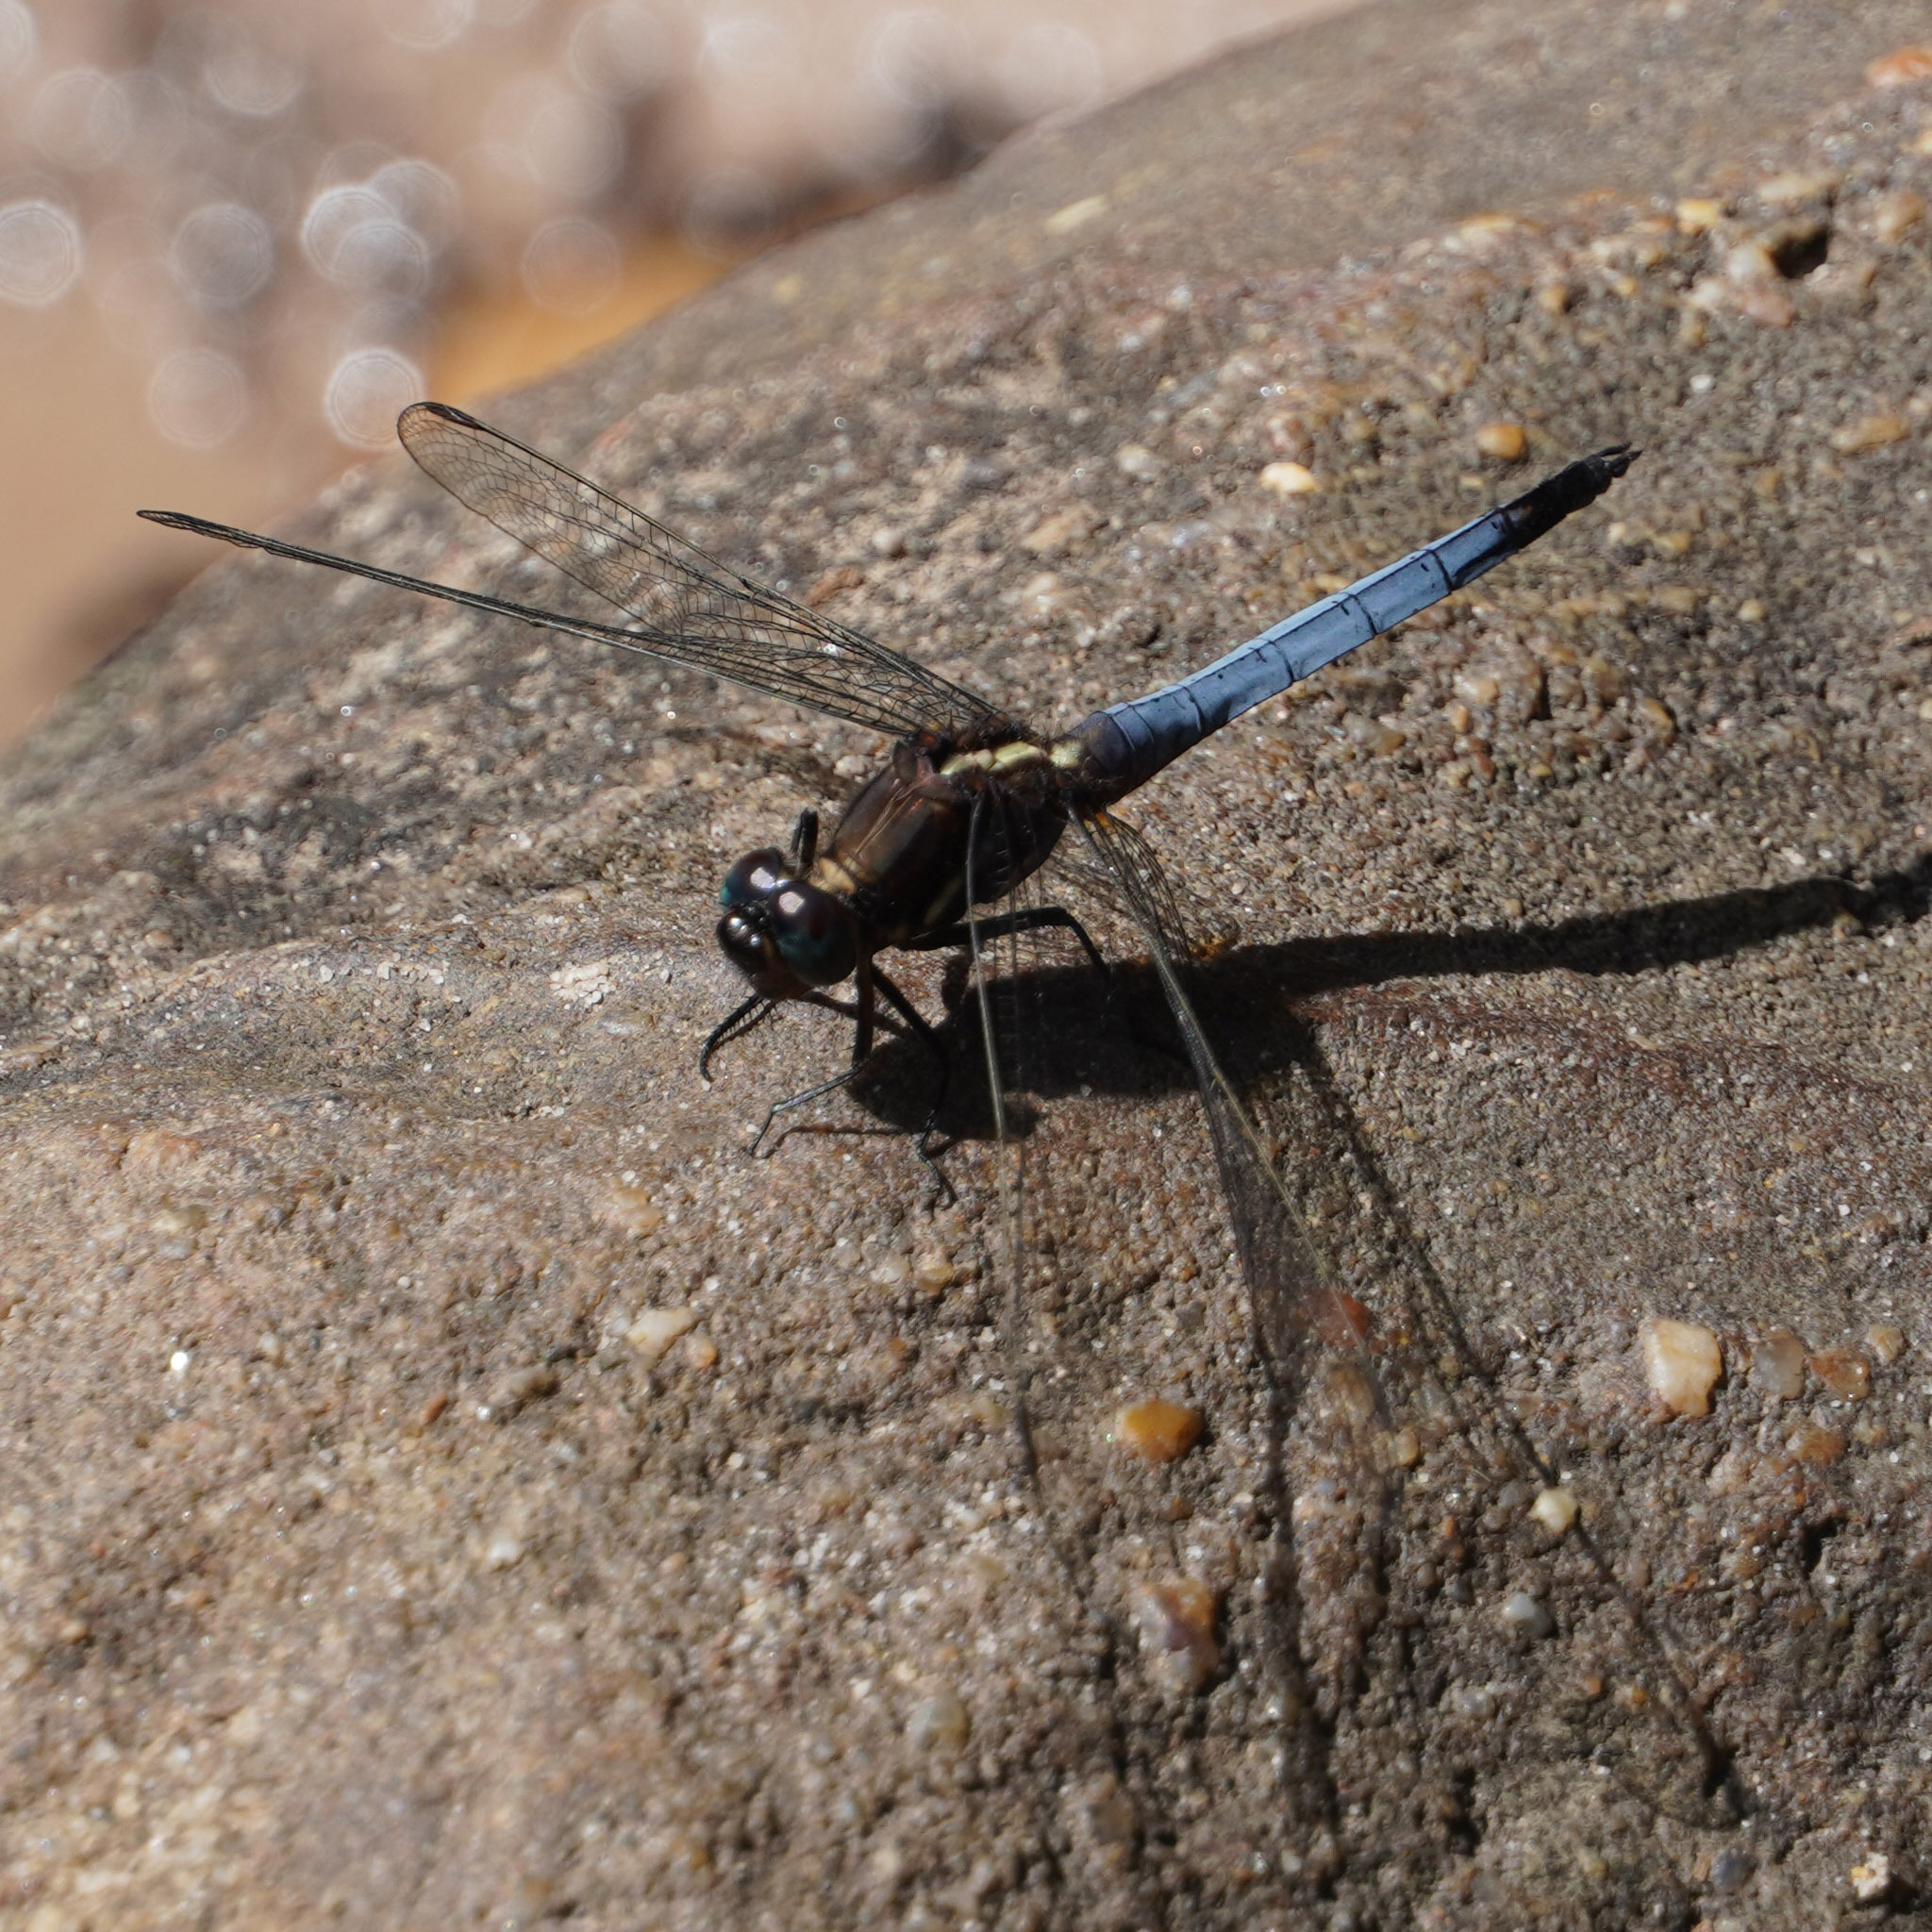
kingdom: Animalia
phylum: Arthropoda
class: Insecta
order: Odonata
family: Libellulidae
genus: Orthetrum
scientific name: Orthetrum glaucum
